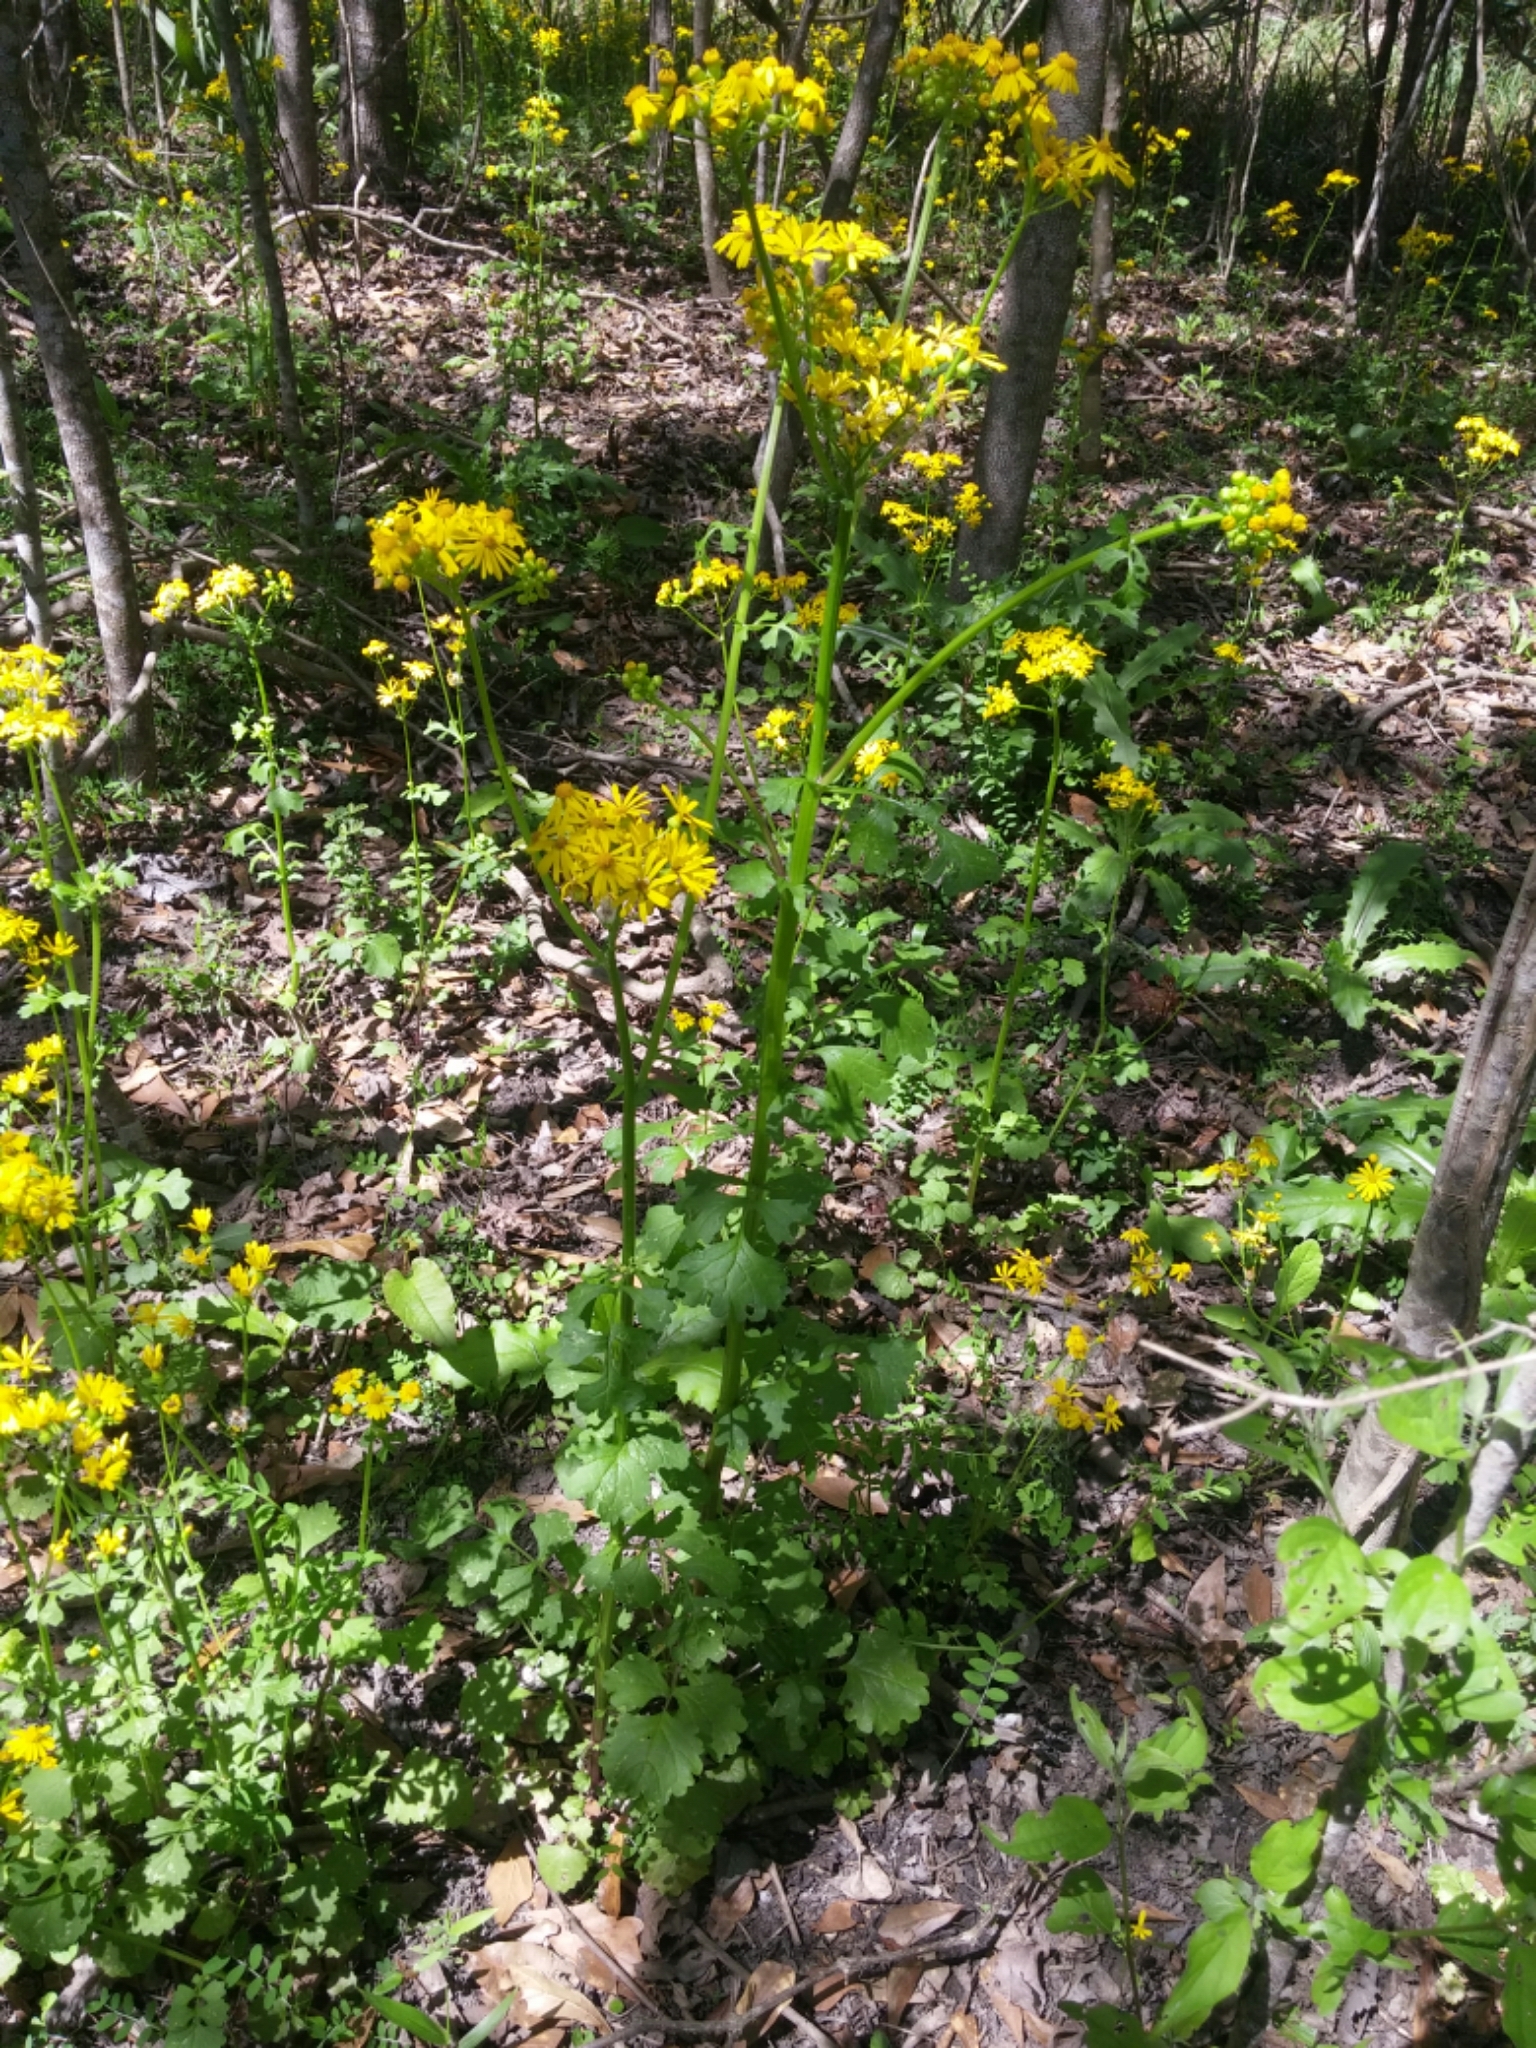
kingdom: Plantae
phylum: Tracheophyta
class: Magnoliopsida
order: Asterales
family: Asteraceae
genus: Packera
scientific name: Packera glabella
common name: Butterweed
